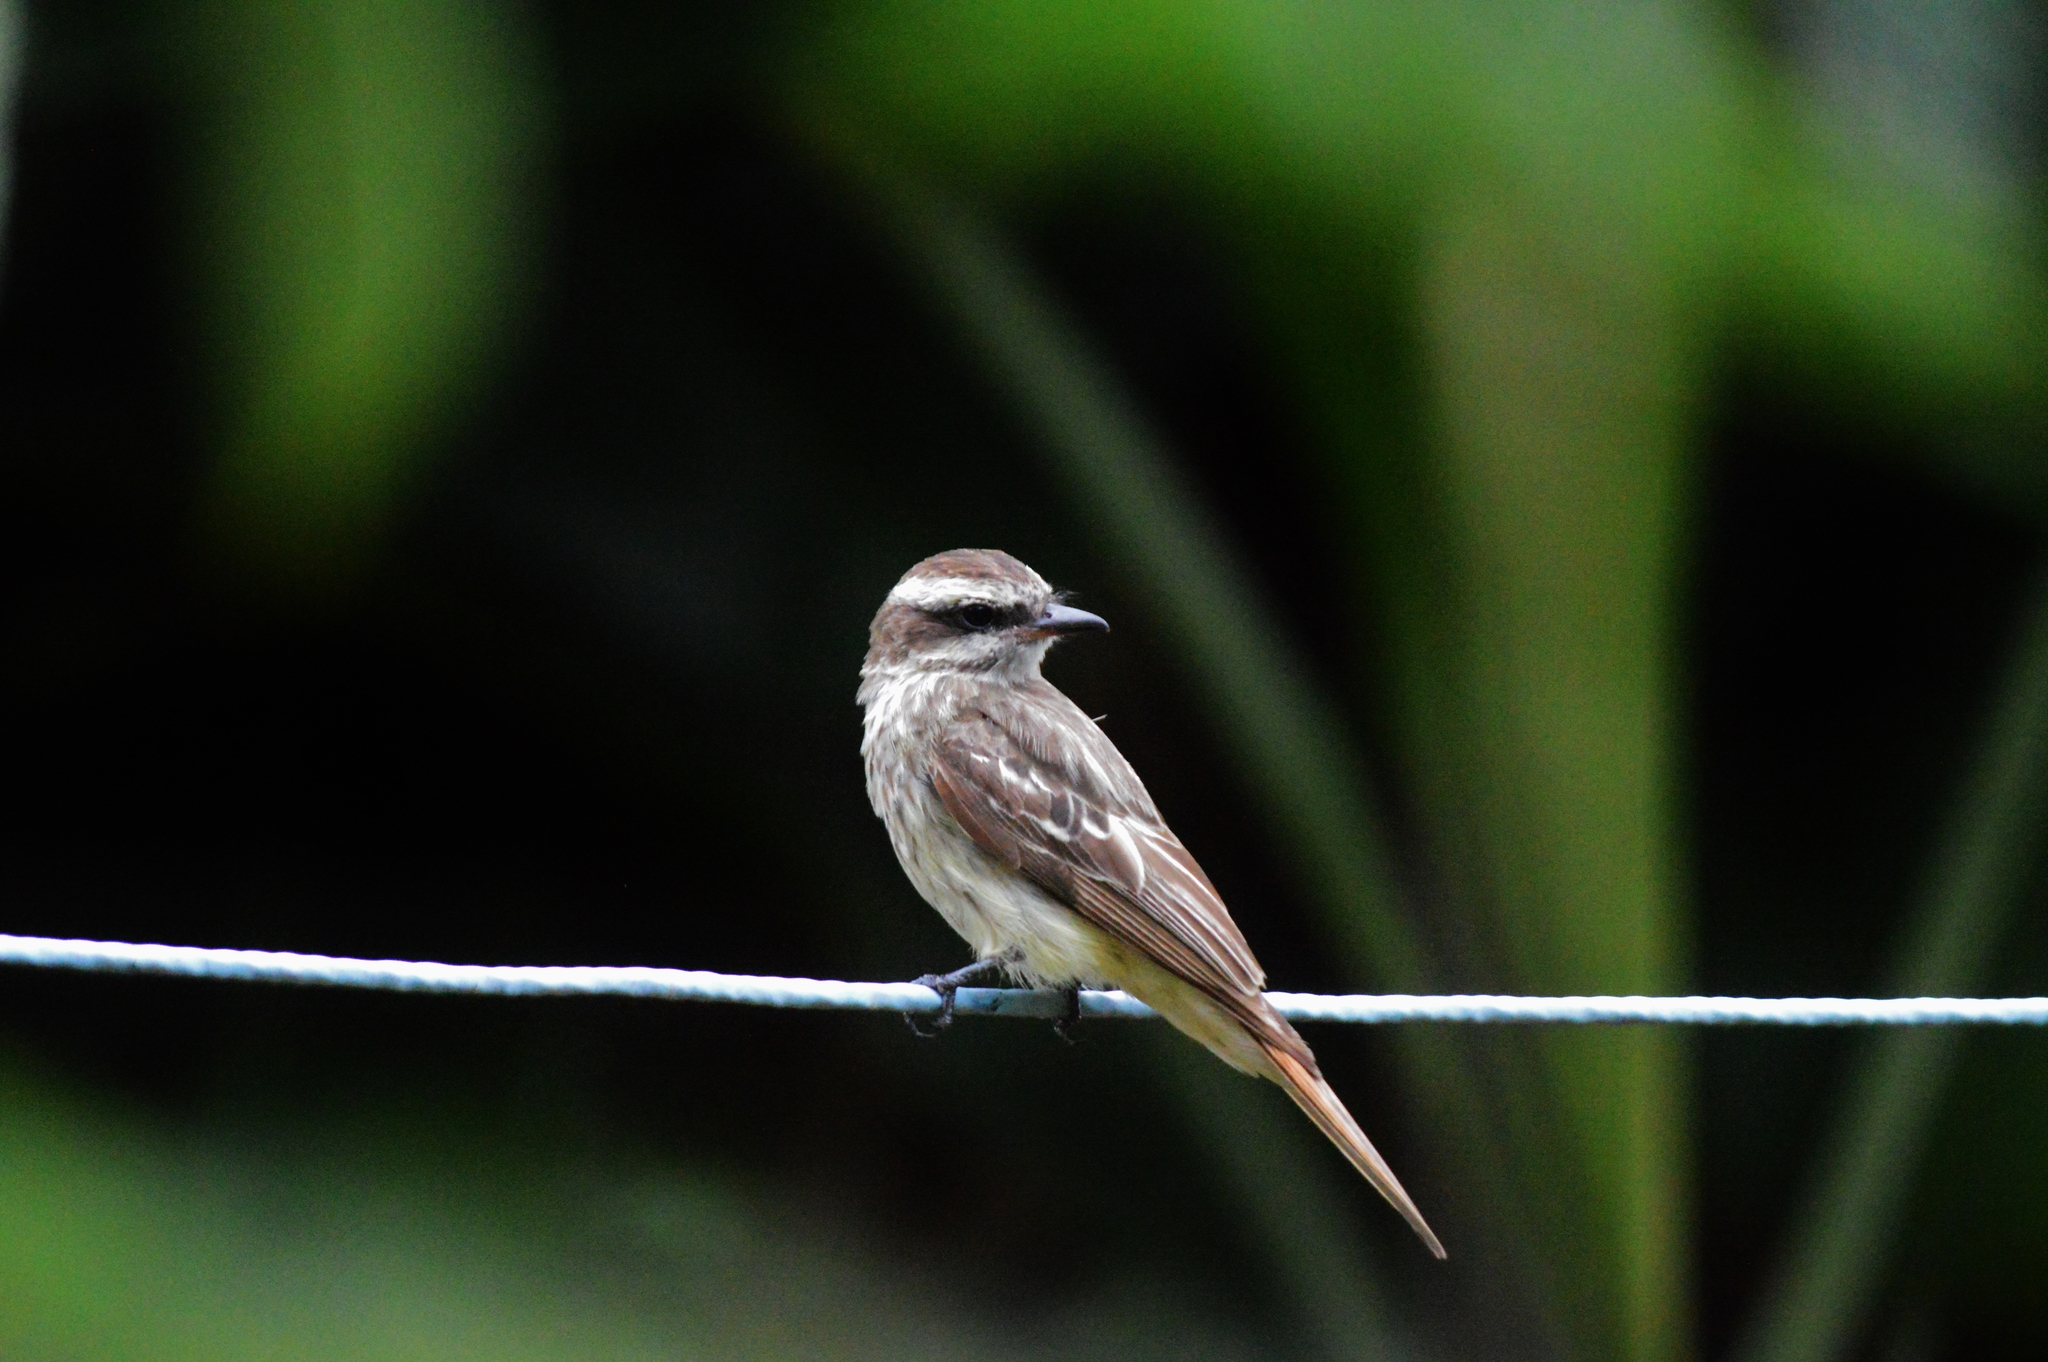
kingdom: Animalia
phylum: Chordata
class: Aves
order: Passeriformes
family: Tyrannidae
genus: Empidonomus
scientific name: Empidonomus varius
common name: Variegated flycatcher
